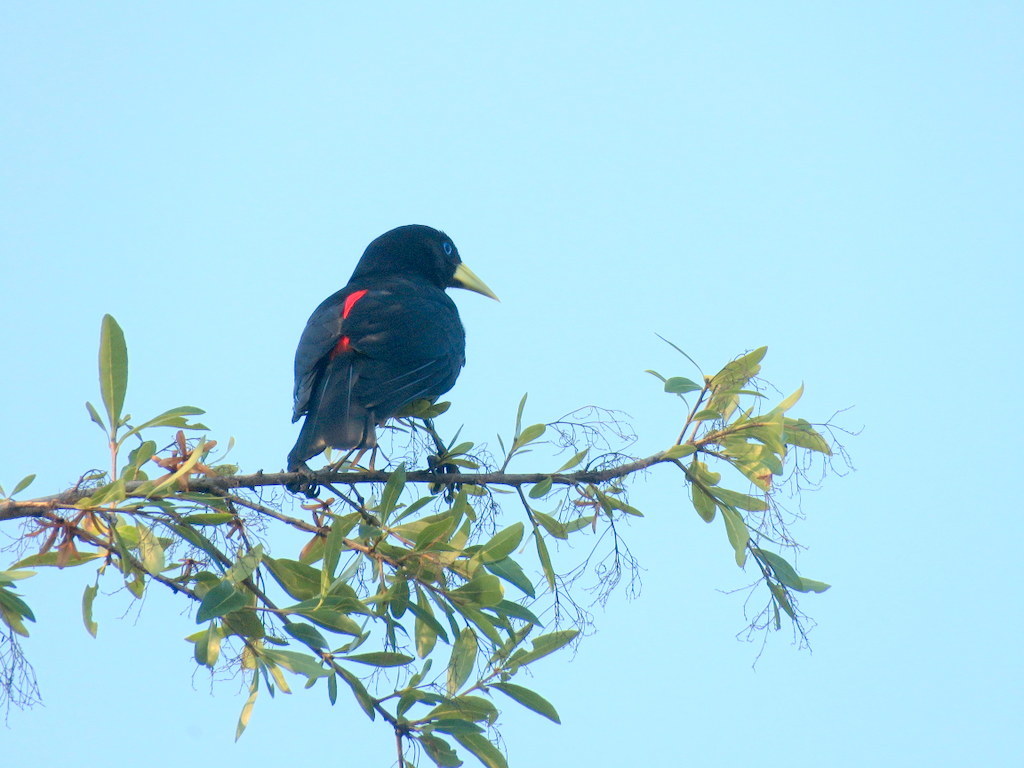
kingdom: Animalia
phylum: Chordata
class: Aves
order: Passeriformes
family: Icteridae
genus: Cacicus
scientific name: Cacicus haemorrhous
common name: Red-rumped cacique
